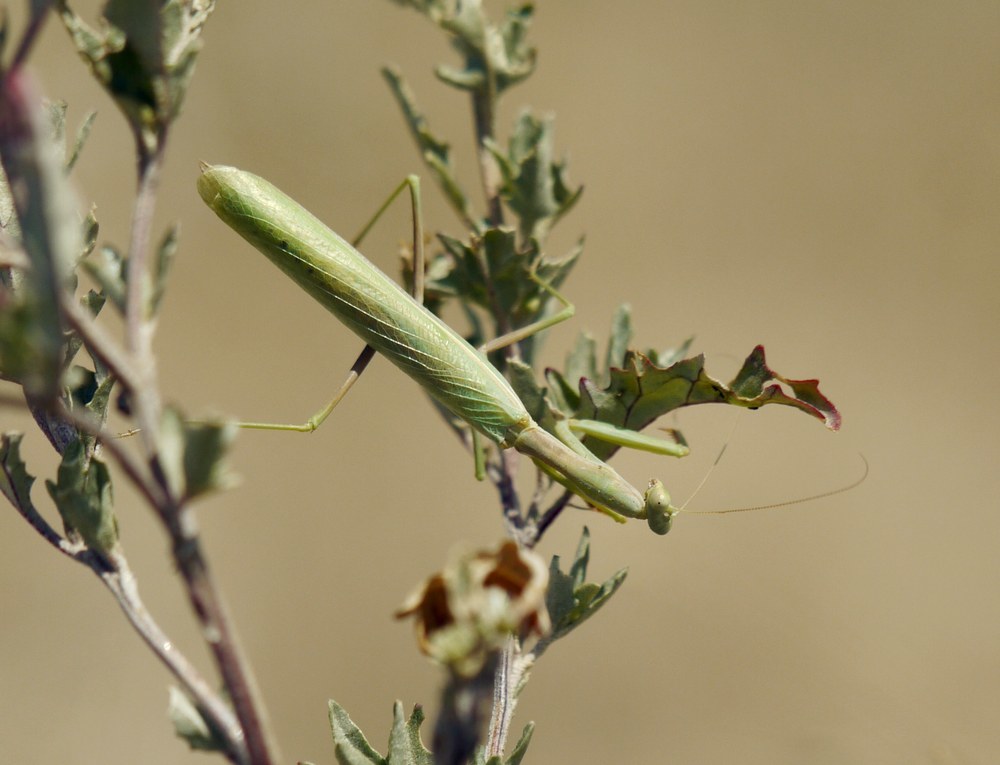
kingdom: Animalia
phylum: Arthropoda
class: Insecta
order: Mantodea
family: Eremiaphilidae
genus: Iris
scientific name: Iris polystictica
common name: Dot-winged mantis
